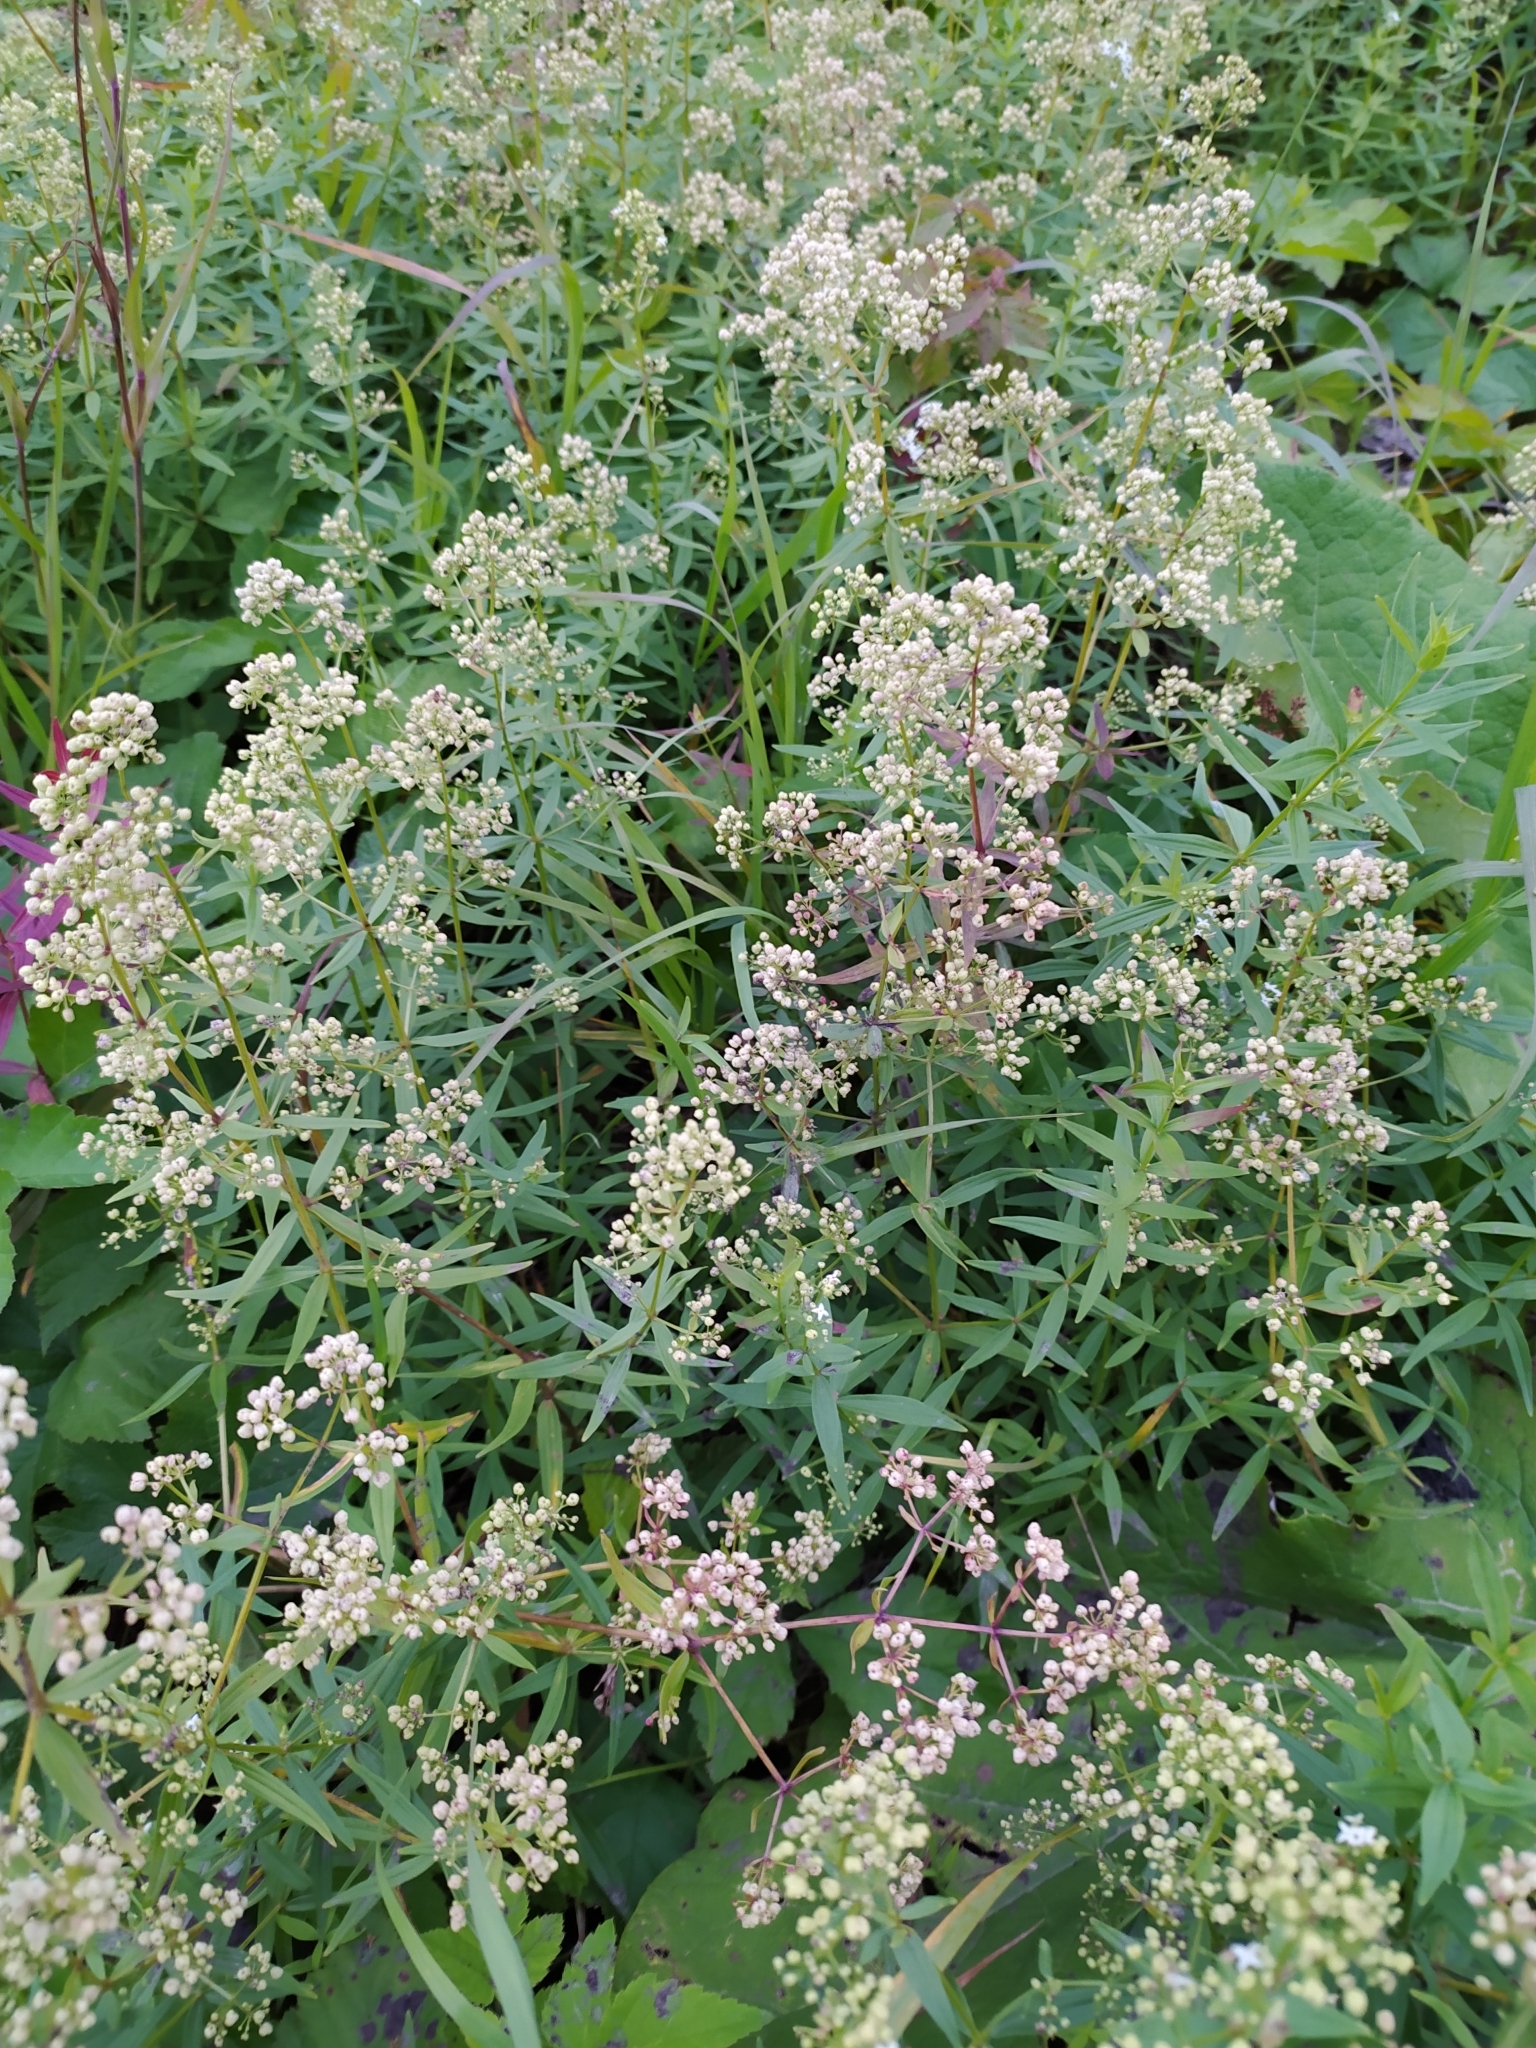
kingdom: Plantae
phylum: Tracheophyta
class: Magnoliopsida
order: Gentianales
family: Rubiaceae
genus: Galium
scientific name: Galium boreale
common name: Northern bedstraw
